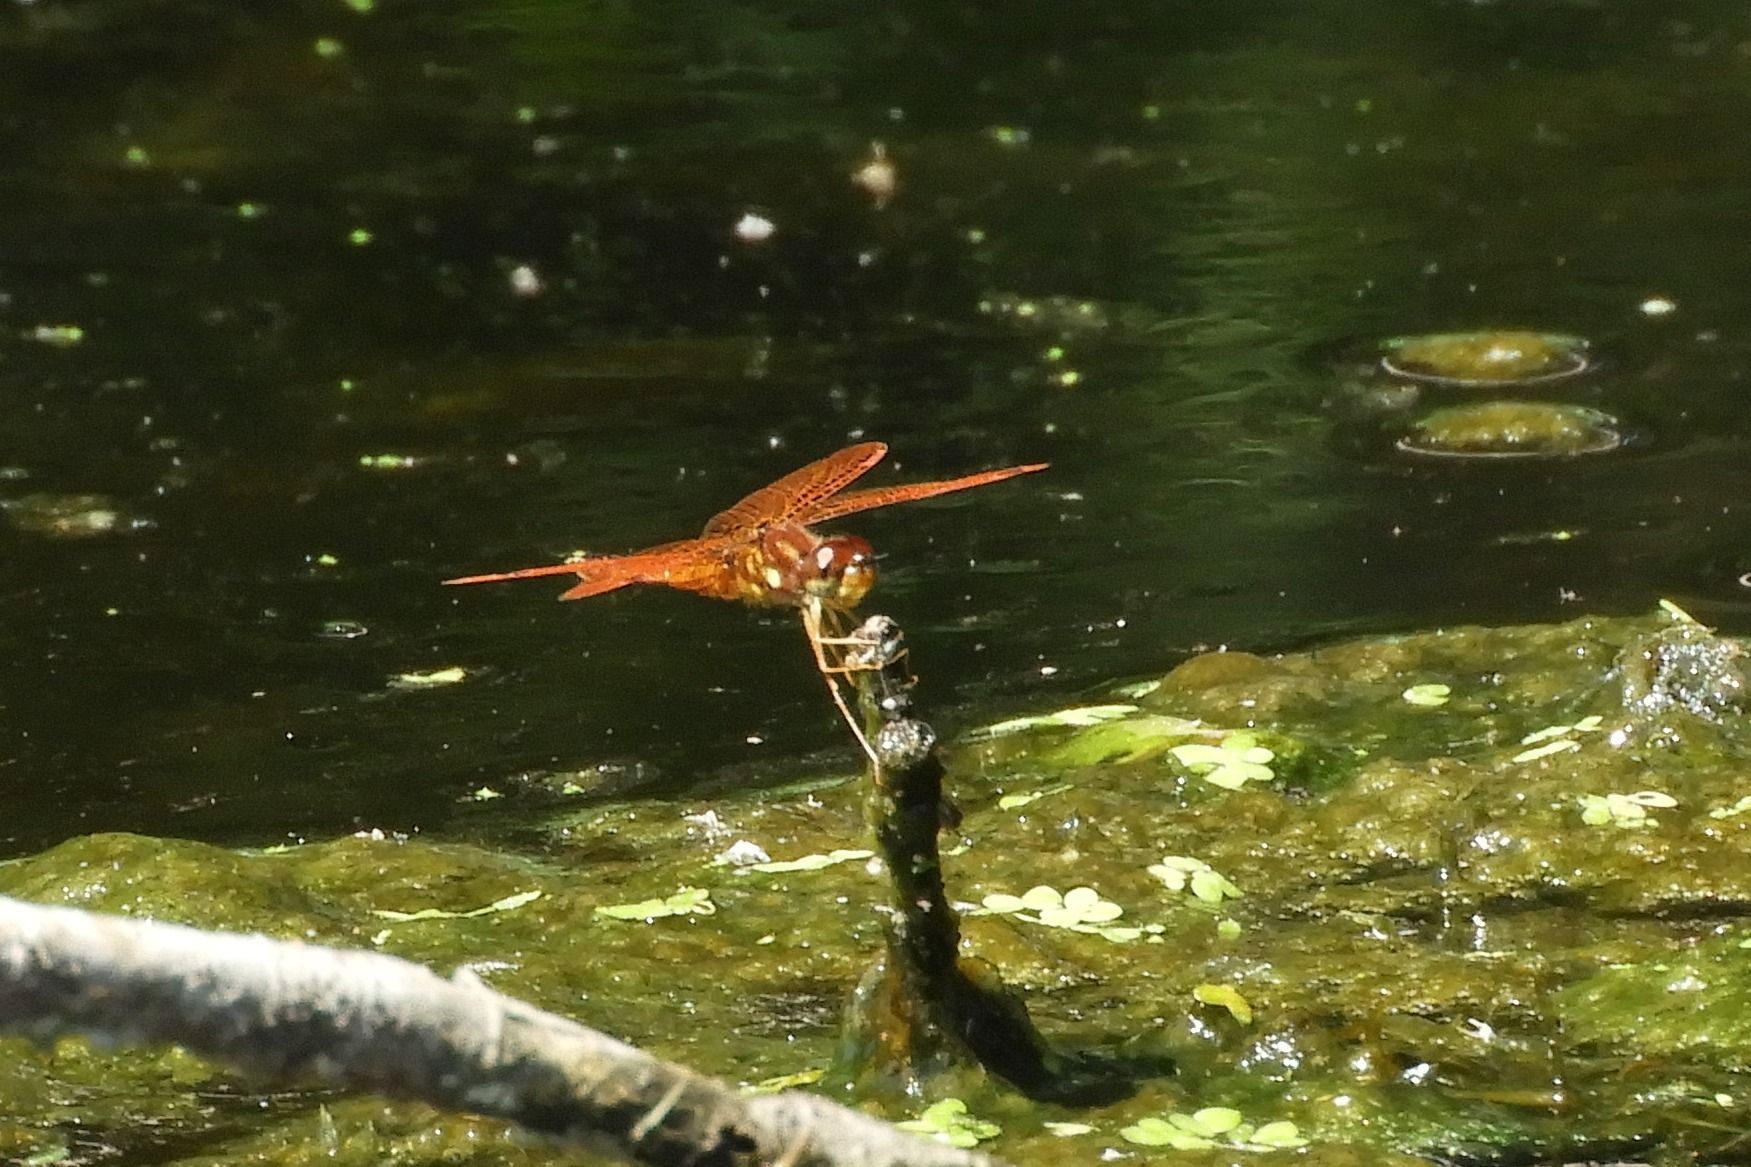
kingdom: Animalia
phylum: Arthropoda
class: Insecta
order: Odonata
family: Libellulidae
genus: Perithemis
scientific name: Perithemis tenera
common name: Eastern amberwing
